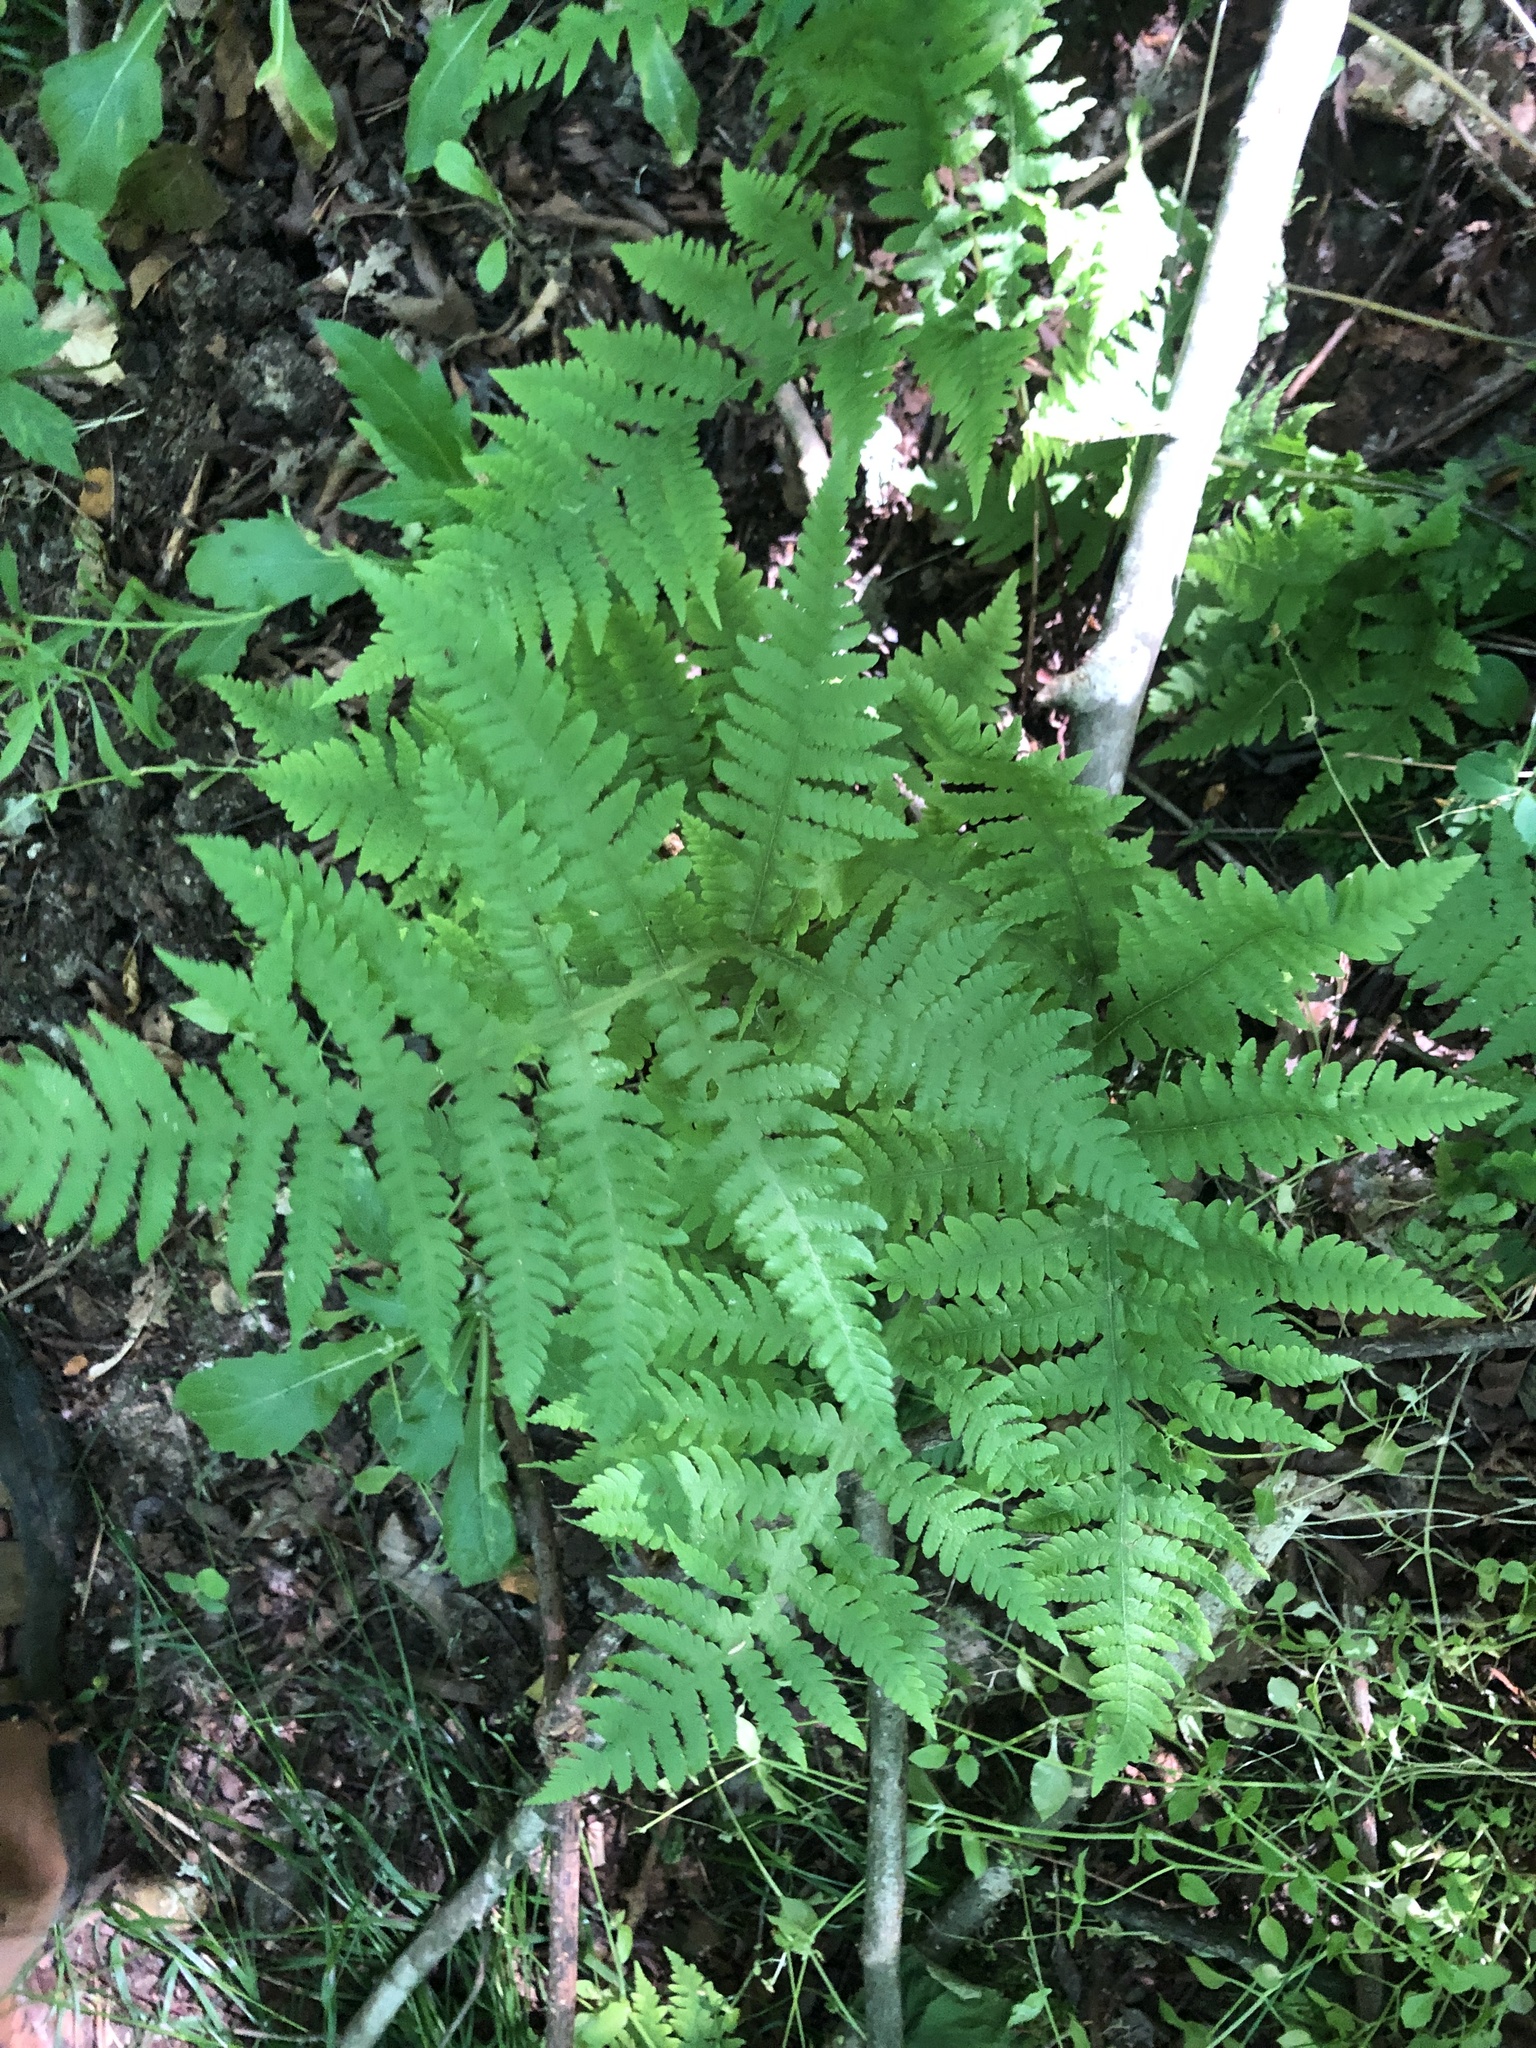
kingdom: Plantae
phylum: Tracheophyta
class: Polypodiopsida
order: Polypodiales
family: Thelypteridaceae
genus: Phegopteris
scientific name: Phegopteris hexagonoptera
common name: Broad beech fern
